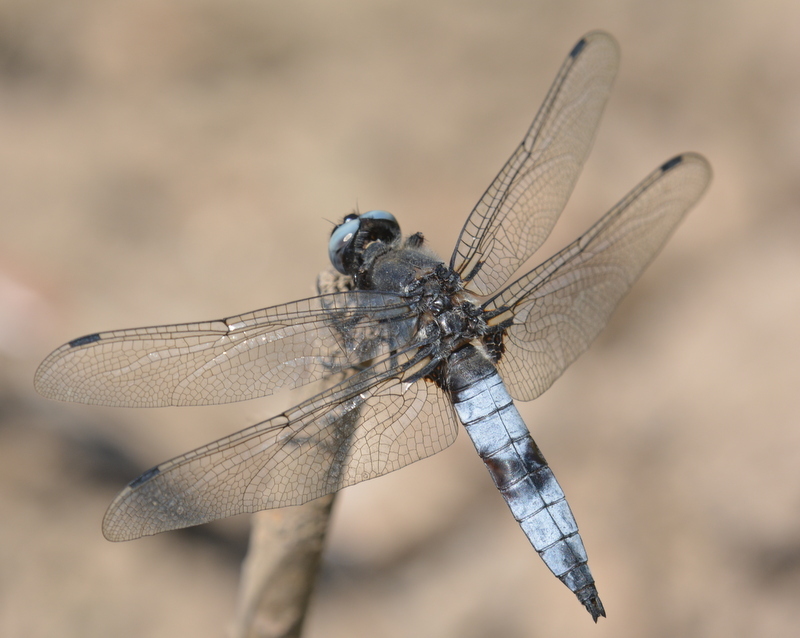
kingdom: Animalia
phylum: Arthropoda
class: Insecta
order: Odonata
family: Libellulidae
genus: Libellula
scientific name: Libellula fulva
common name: Blue chaser
